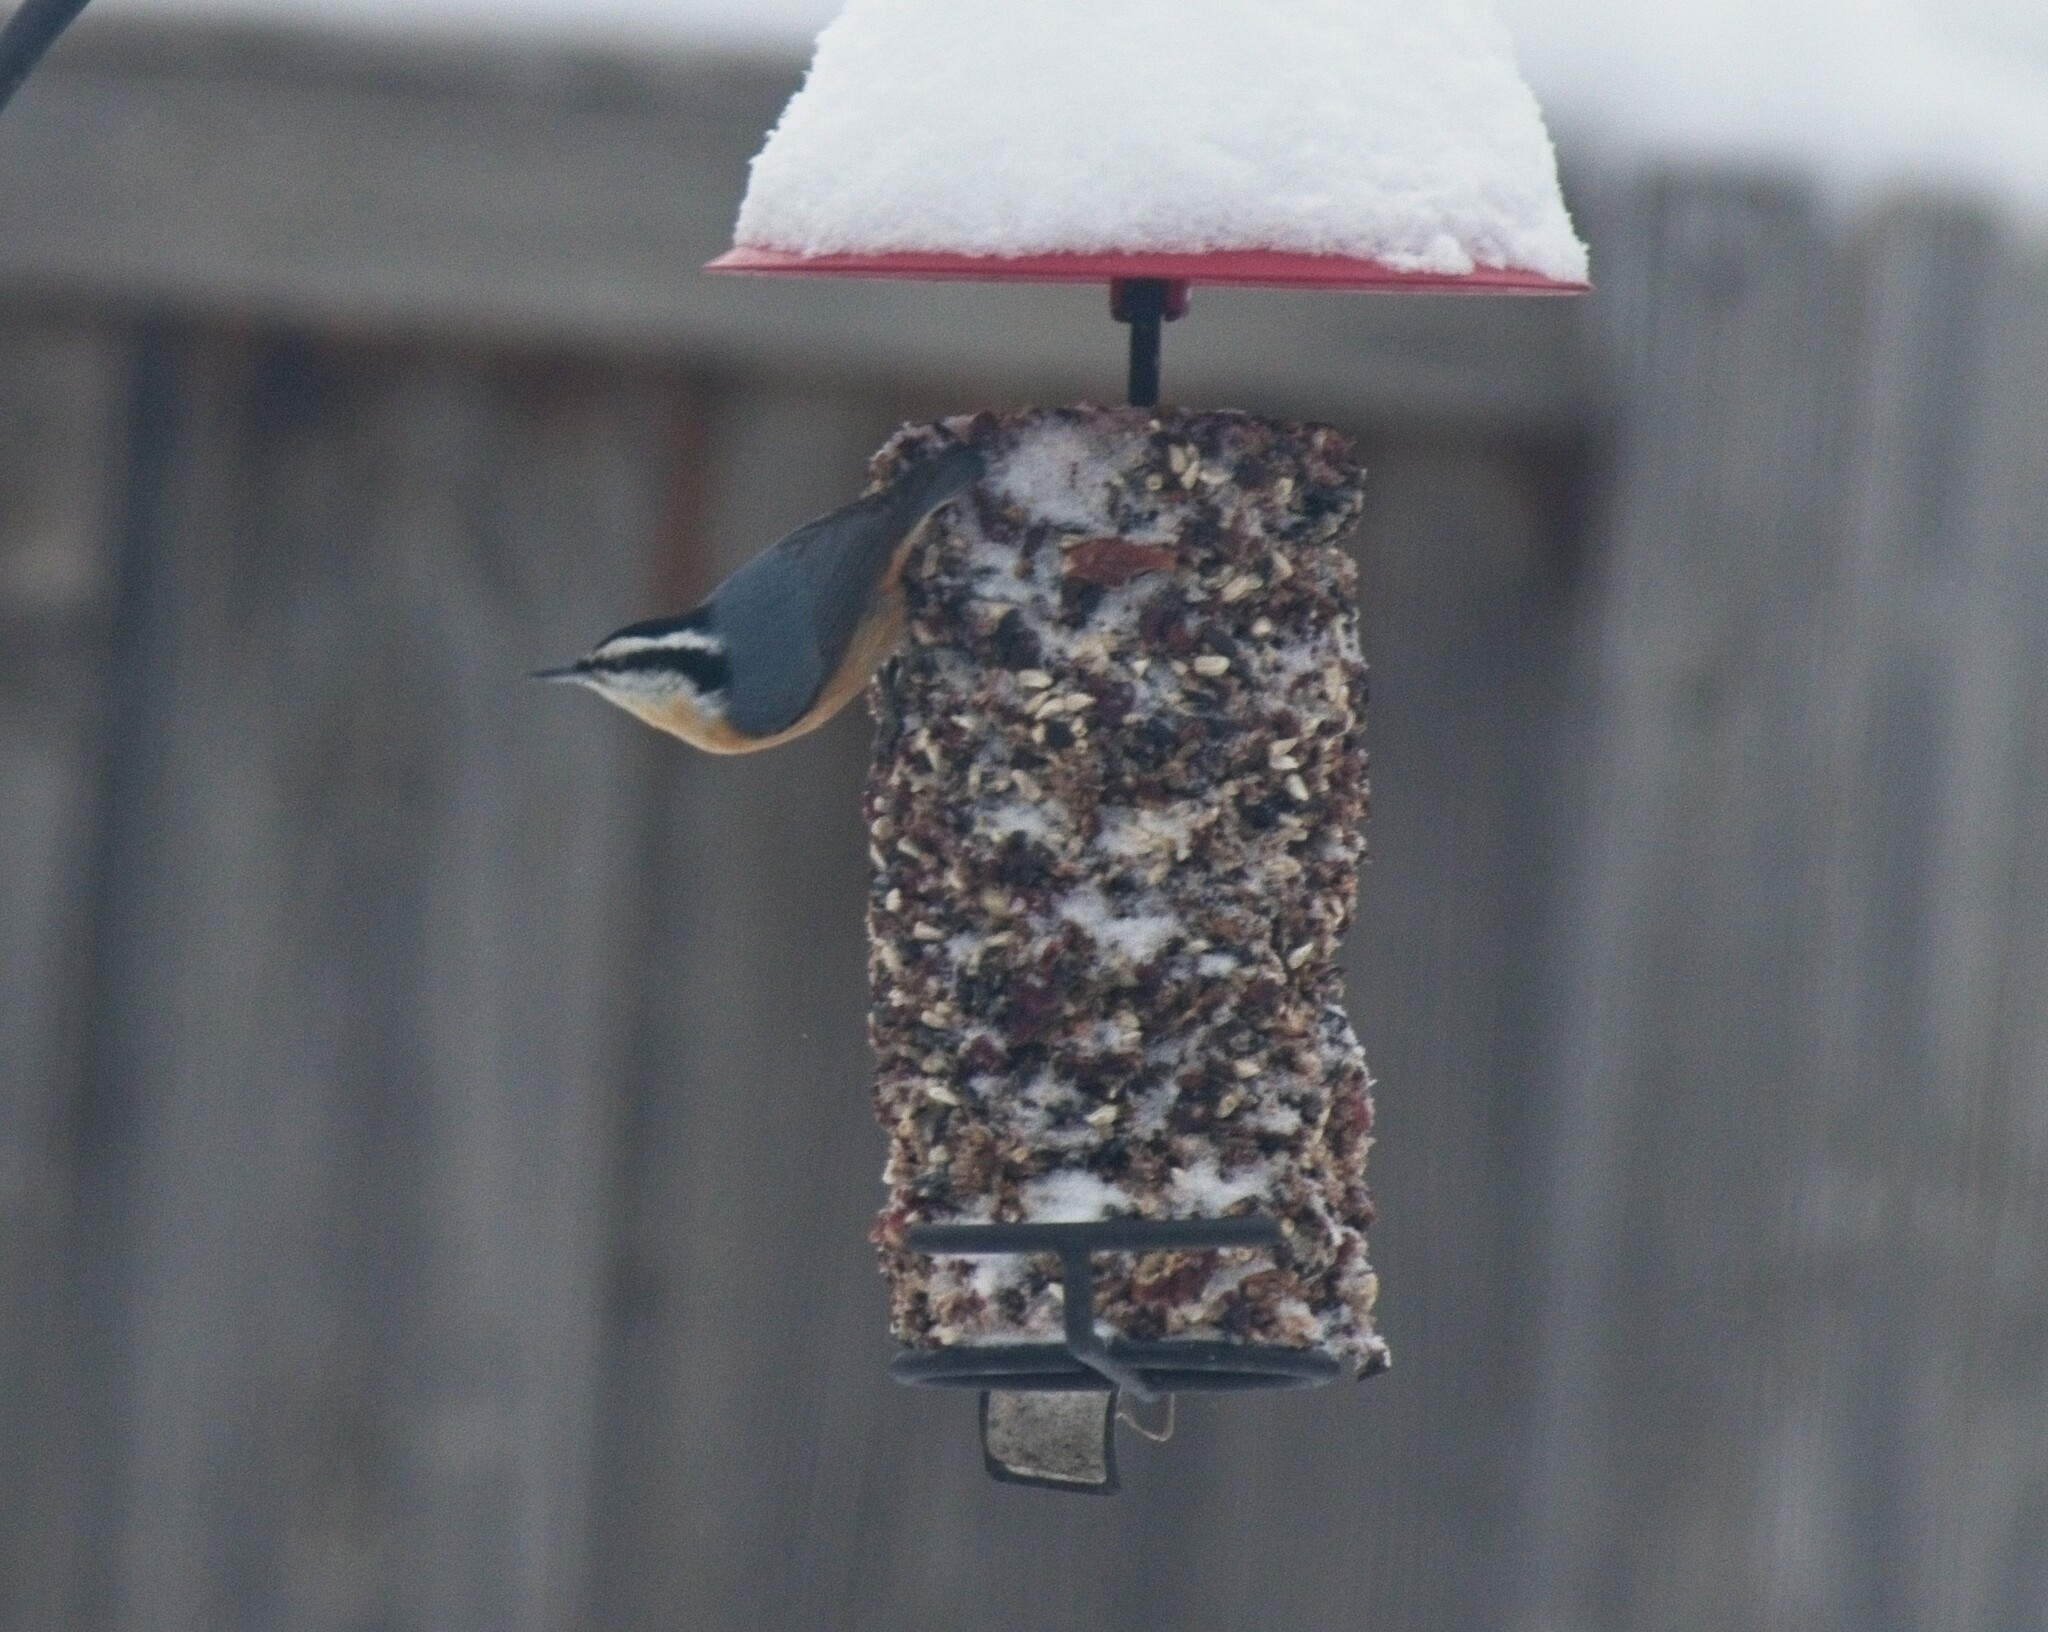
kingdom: Animalia
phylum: Chordata
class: Aves
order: Passeriformes
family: Sittidae
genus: Sitta
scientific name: Sitta canadensis
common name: Red-breasted nuthatch
